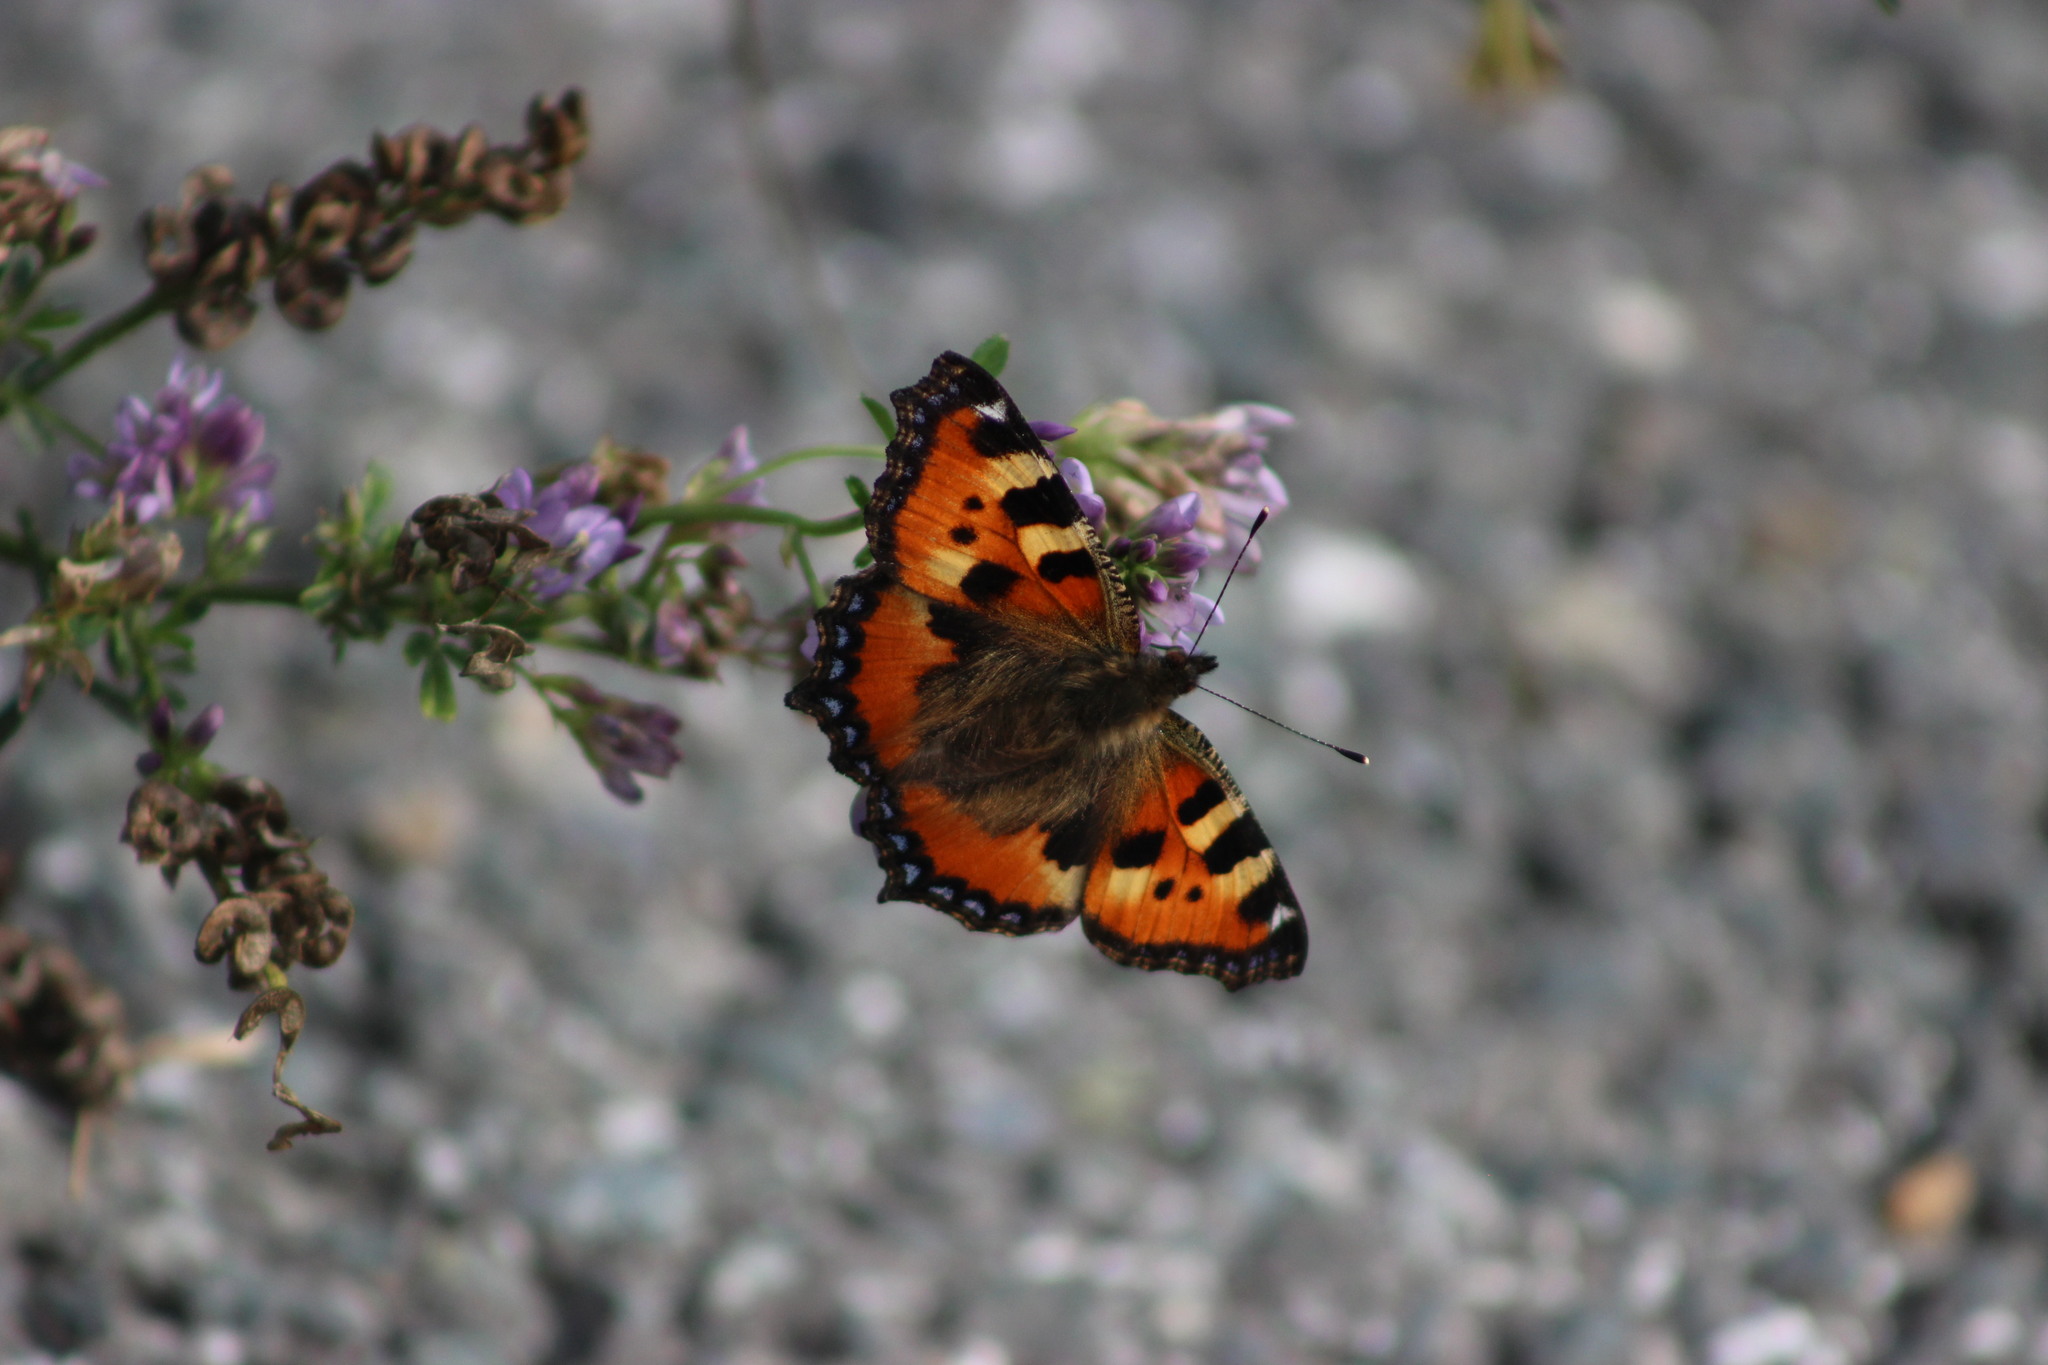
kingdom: Animalia
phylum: Arthropoda
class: Insecta
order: Lepidoptera
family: Nymphalidae
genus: Aglais
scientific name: Aglais urticae
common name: Small tortoiseshell
